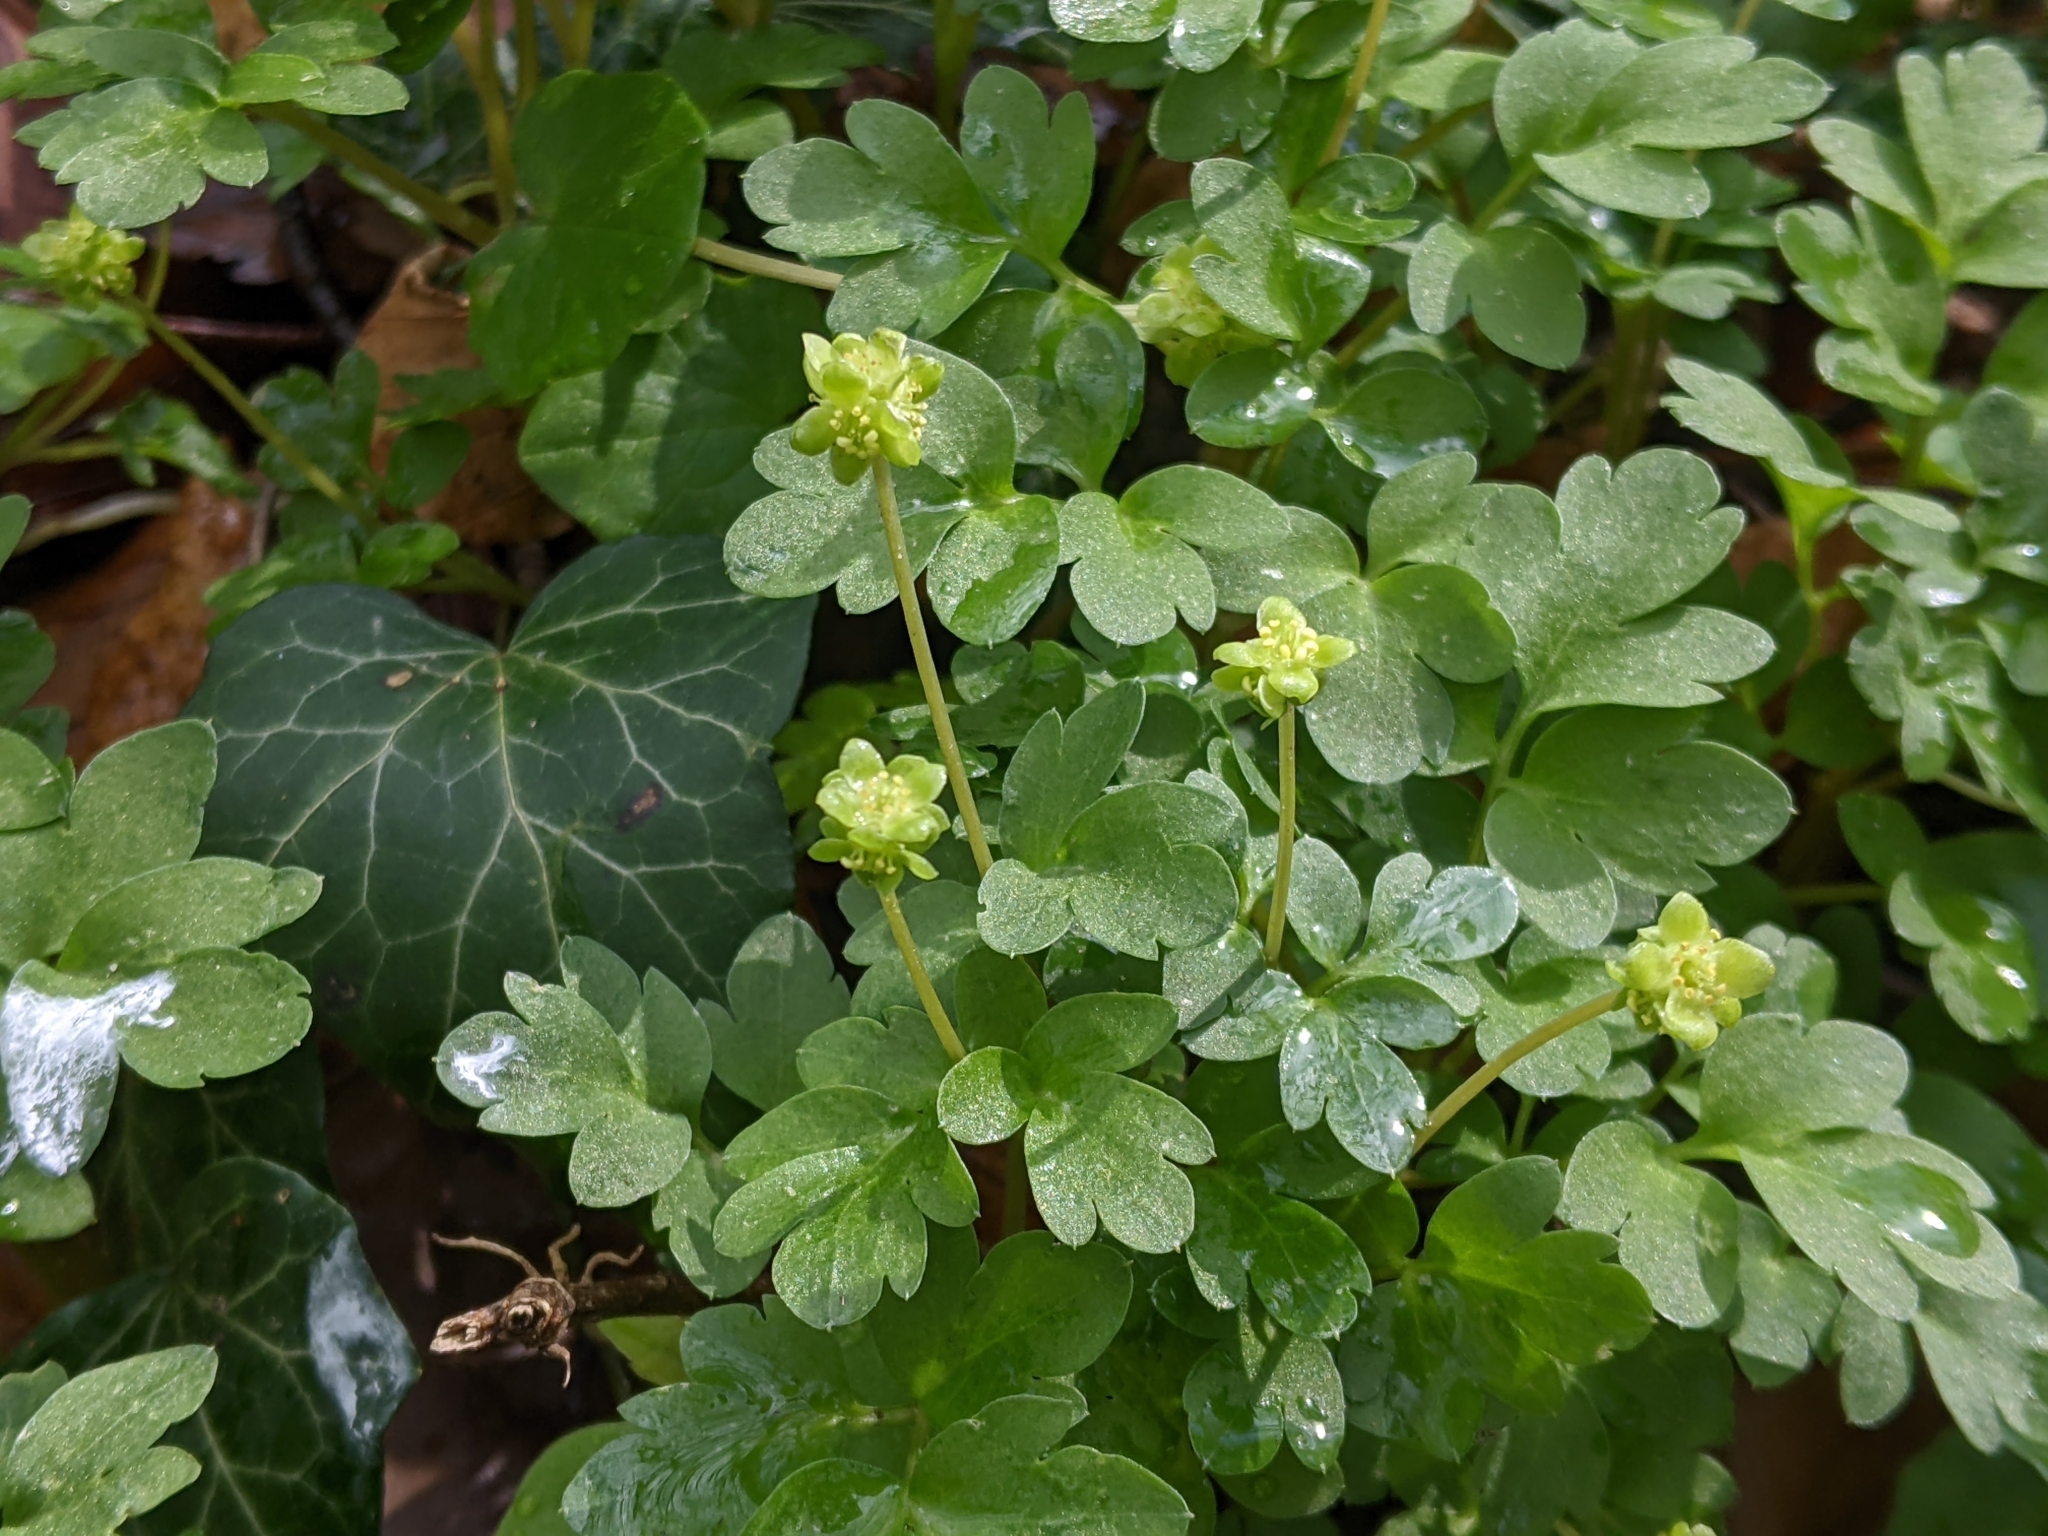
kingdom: Plantae
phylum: Tracheophyta
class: Magnoliopsida
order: Dipsacales
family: Viburnaceae
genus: Adoxa
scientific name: Adoxa moschatellina
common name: Moschatel
